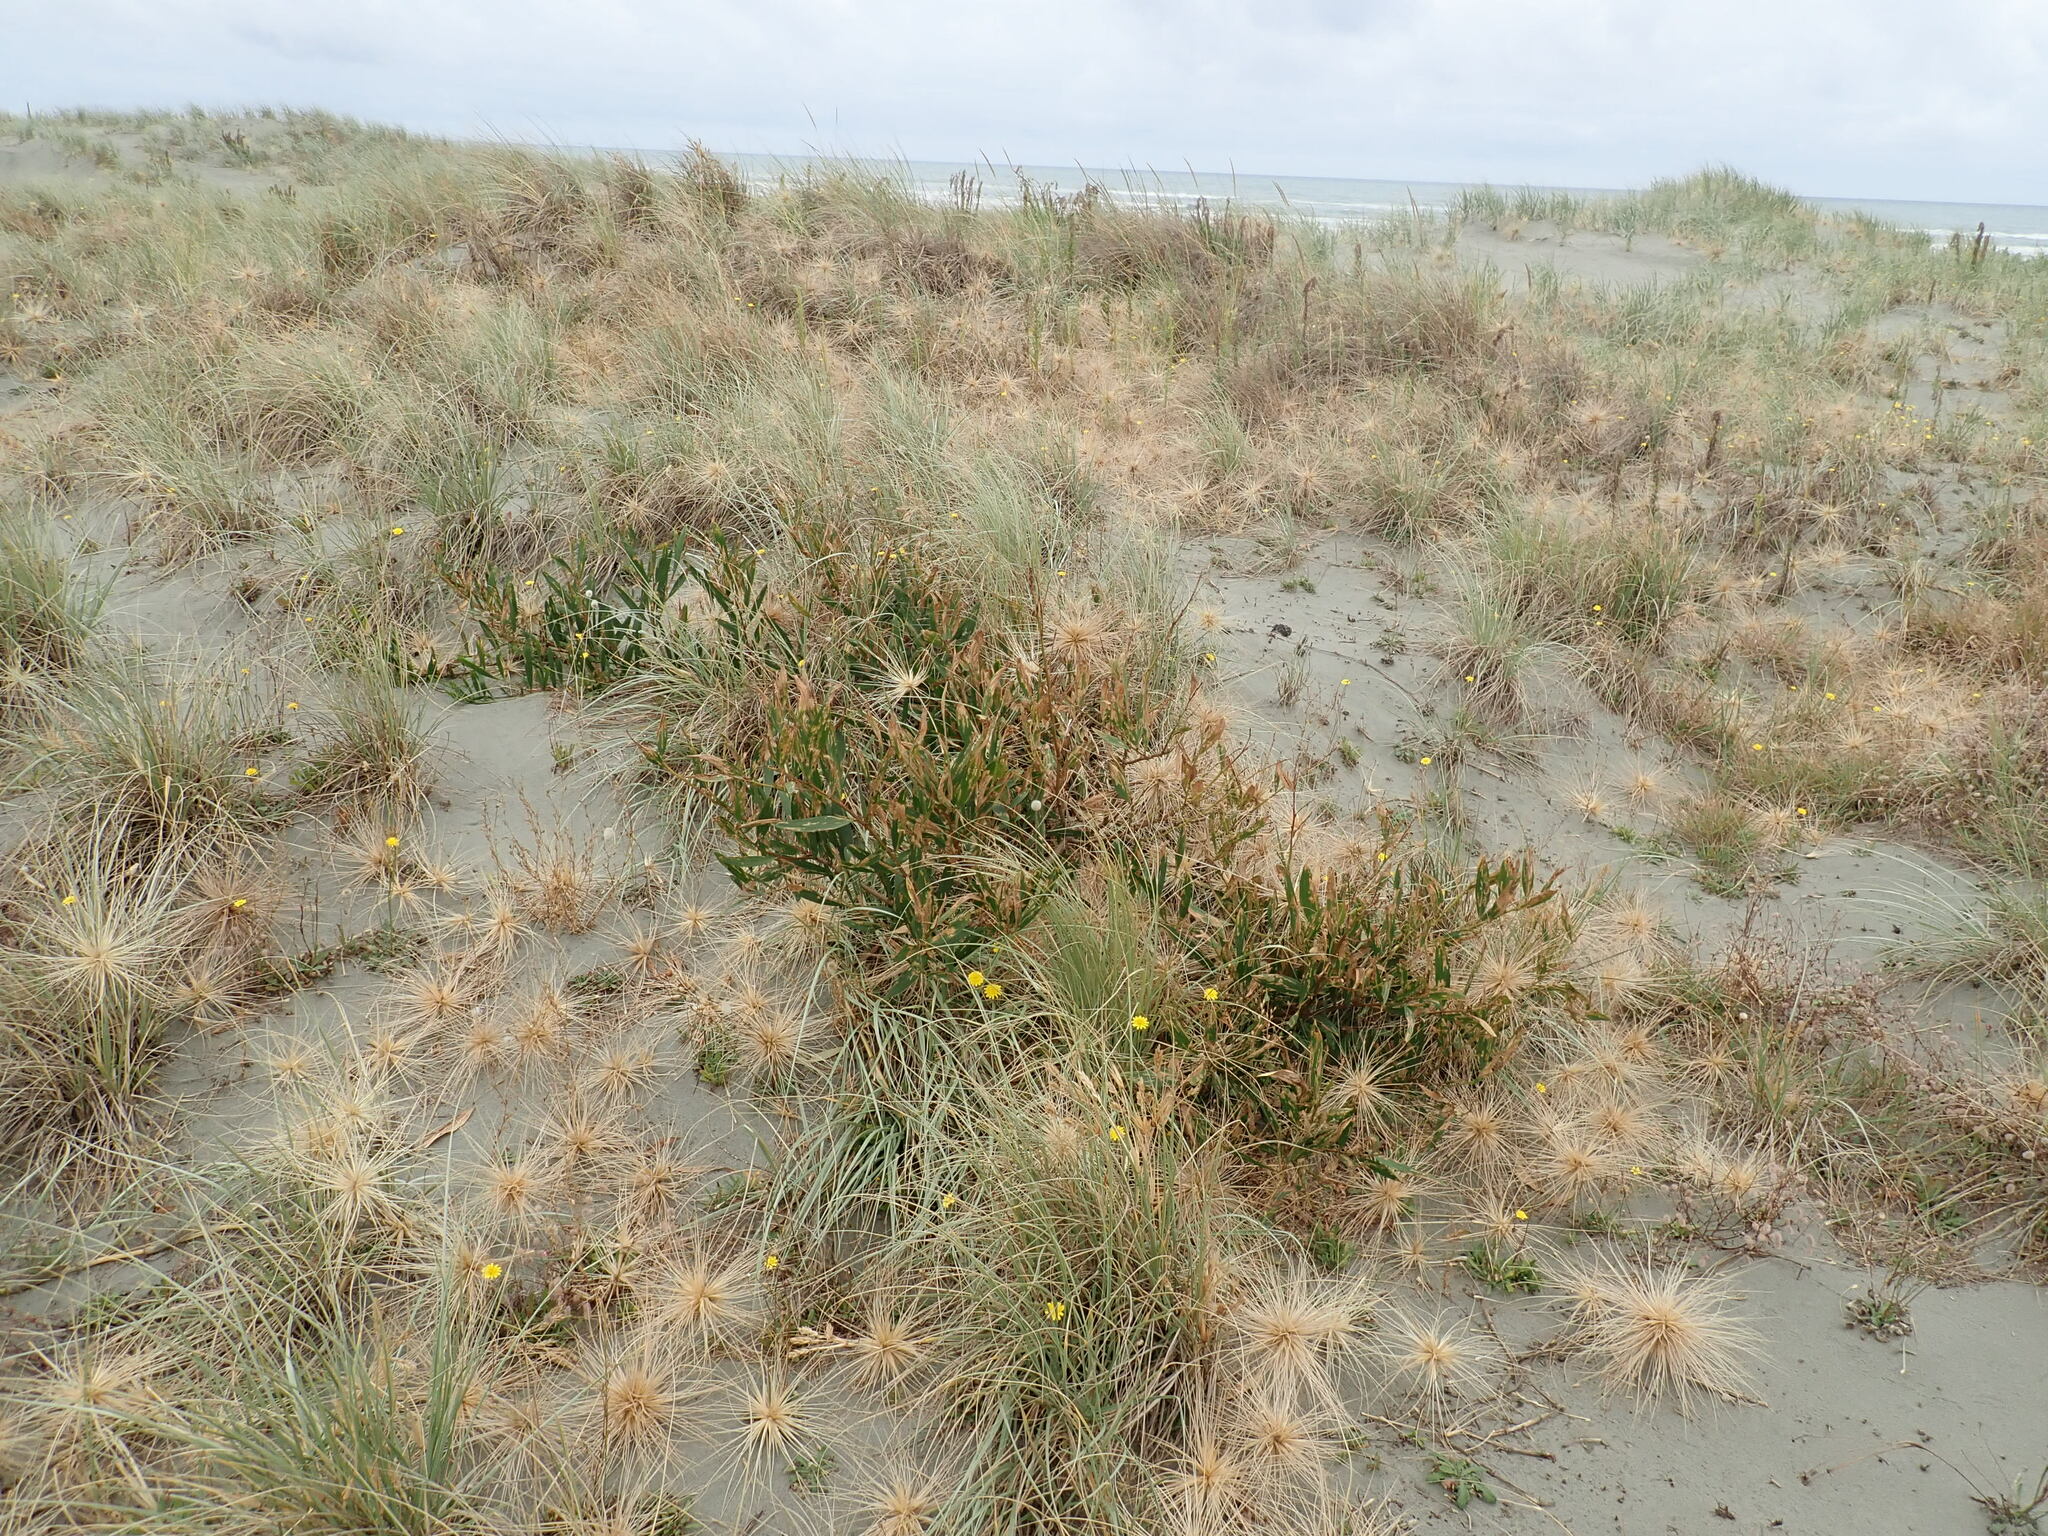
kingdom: Plantae
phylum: Tracheophyta
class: Magnoliopsida
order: Fabales
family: Fabaceae
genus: Acacia
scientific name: Acacia longifolia
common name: Sydney golden wattle
